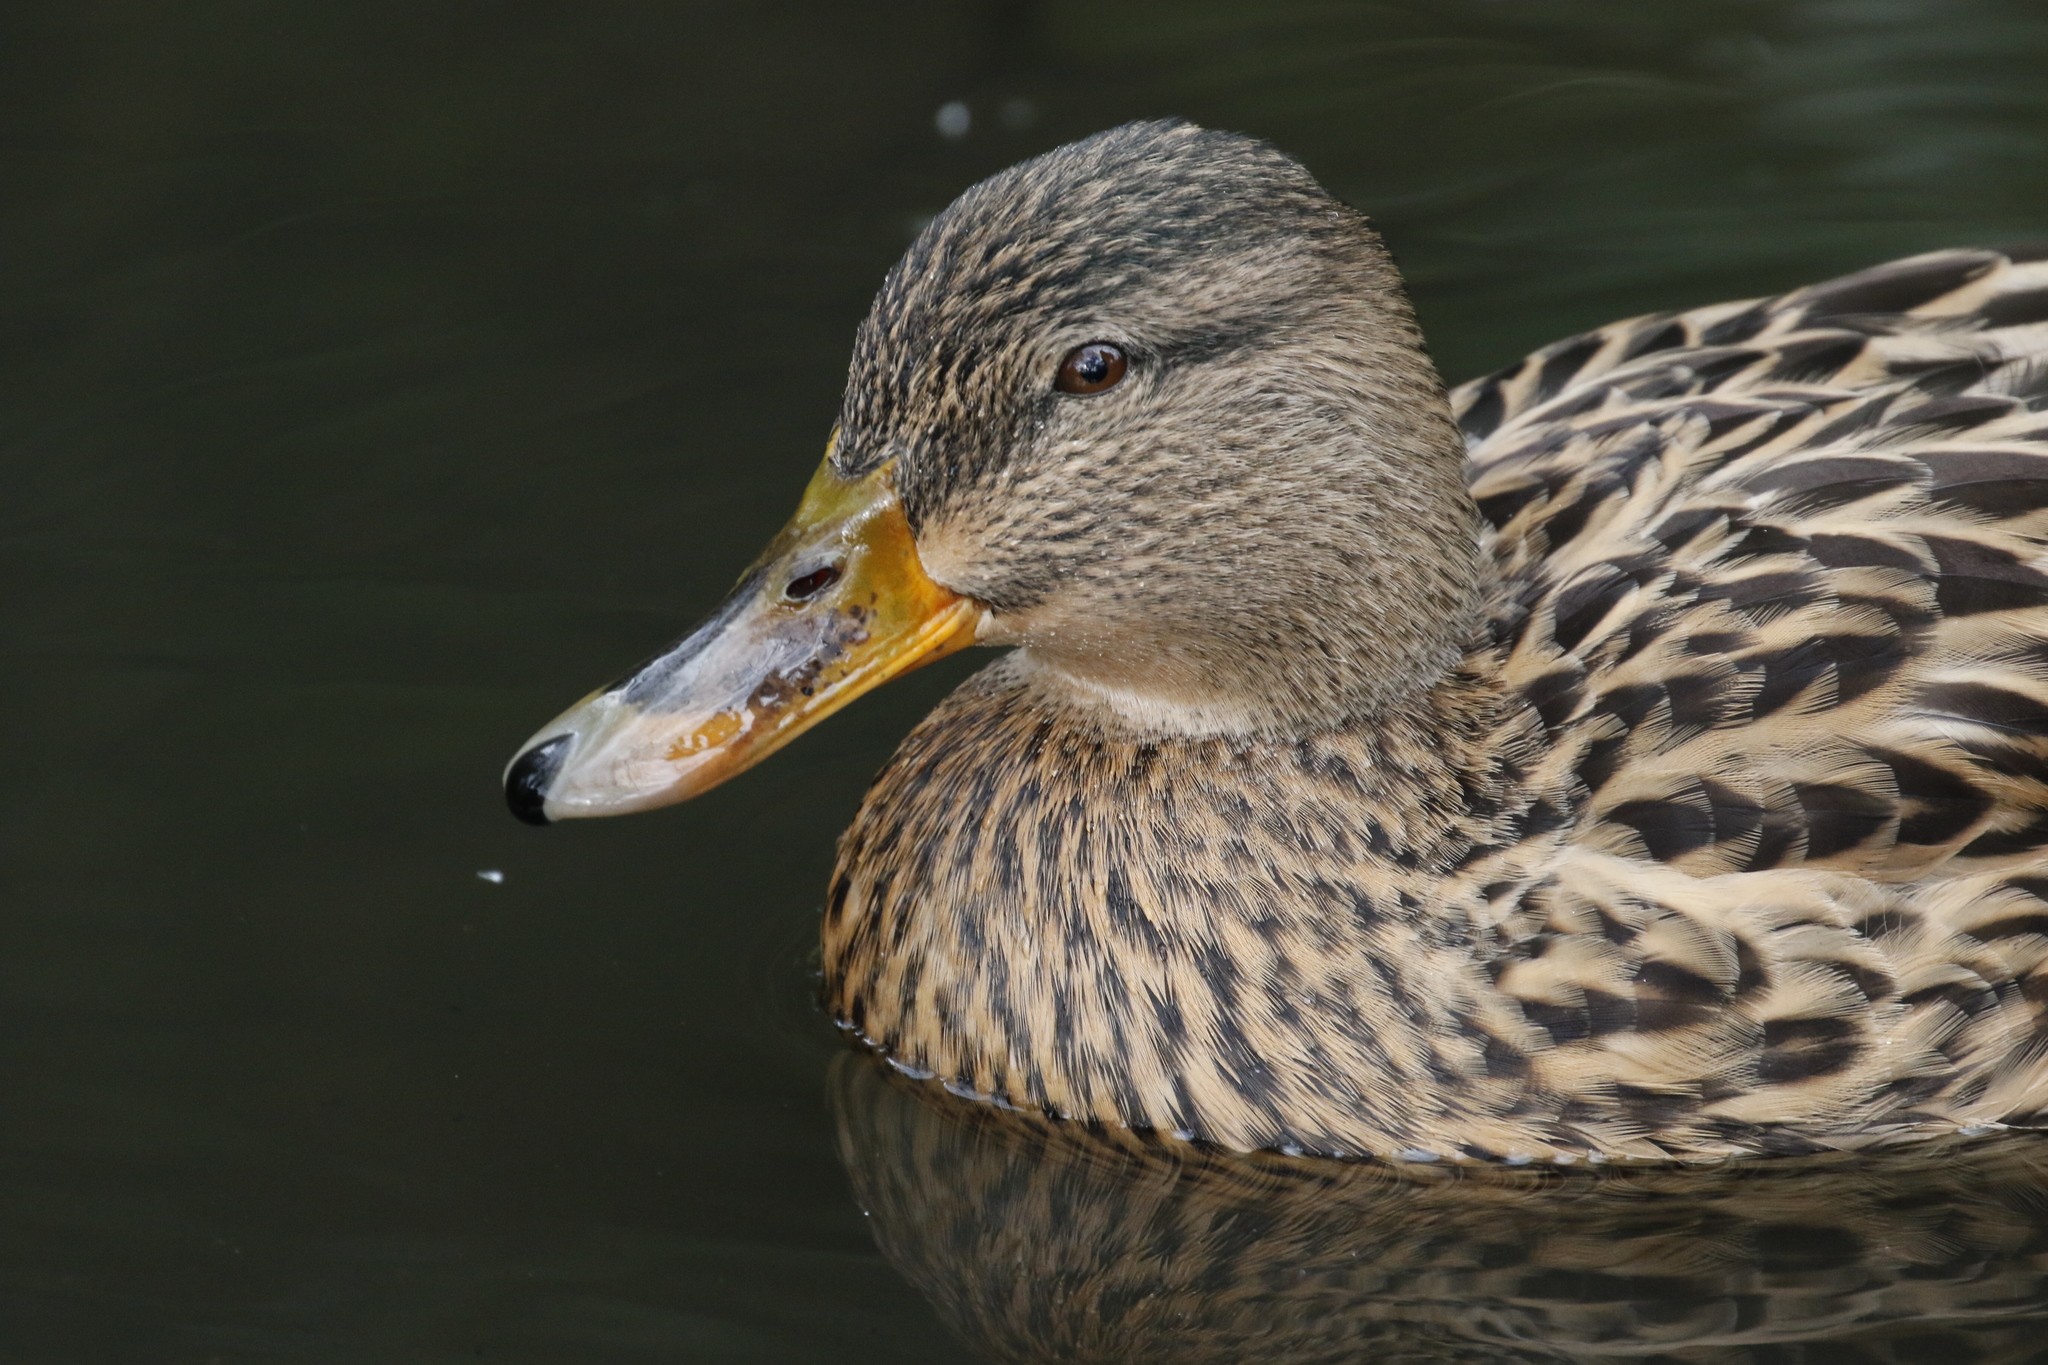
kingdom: Animalia
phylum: Chordata
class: Aves
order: Anseriformes
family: Anatidae
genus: Anas
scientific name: Anas platyrhynchos
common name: Mallard
